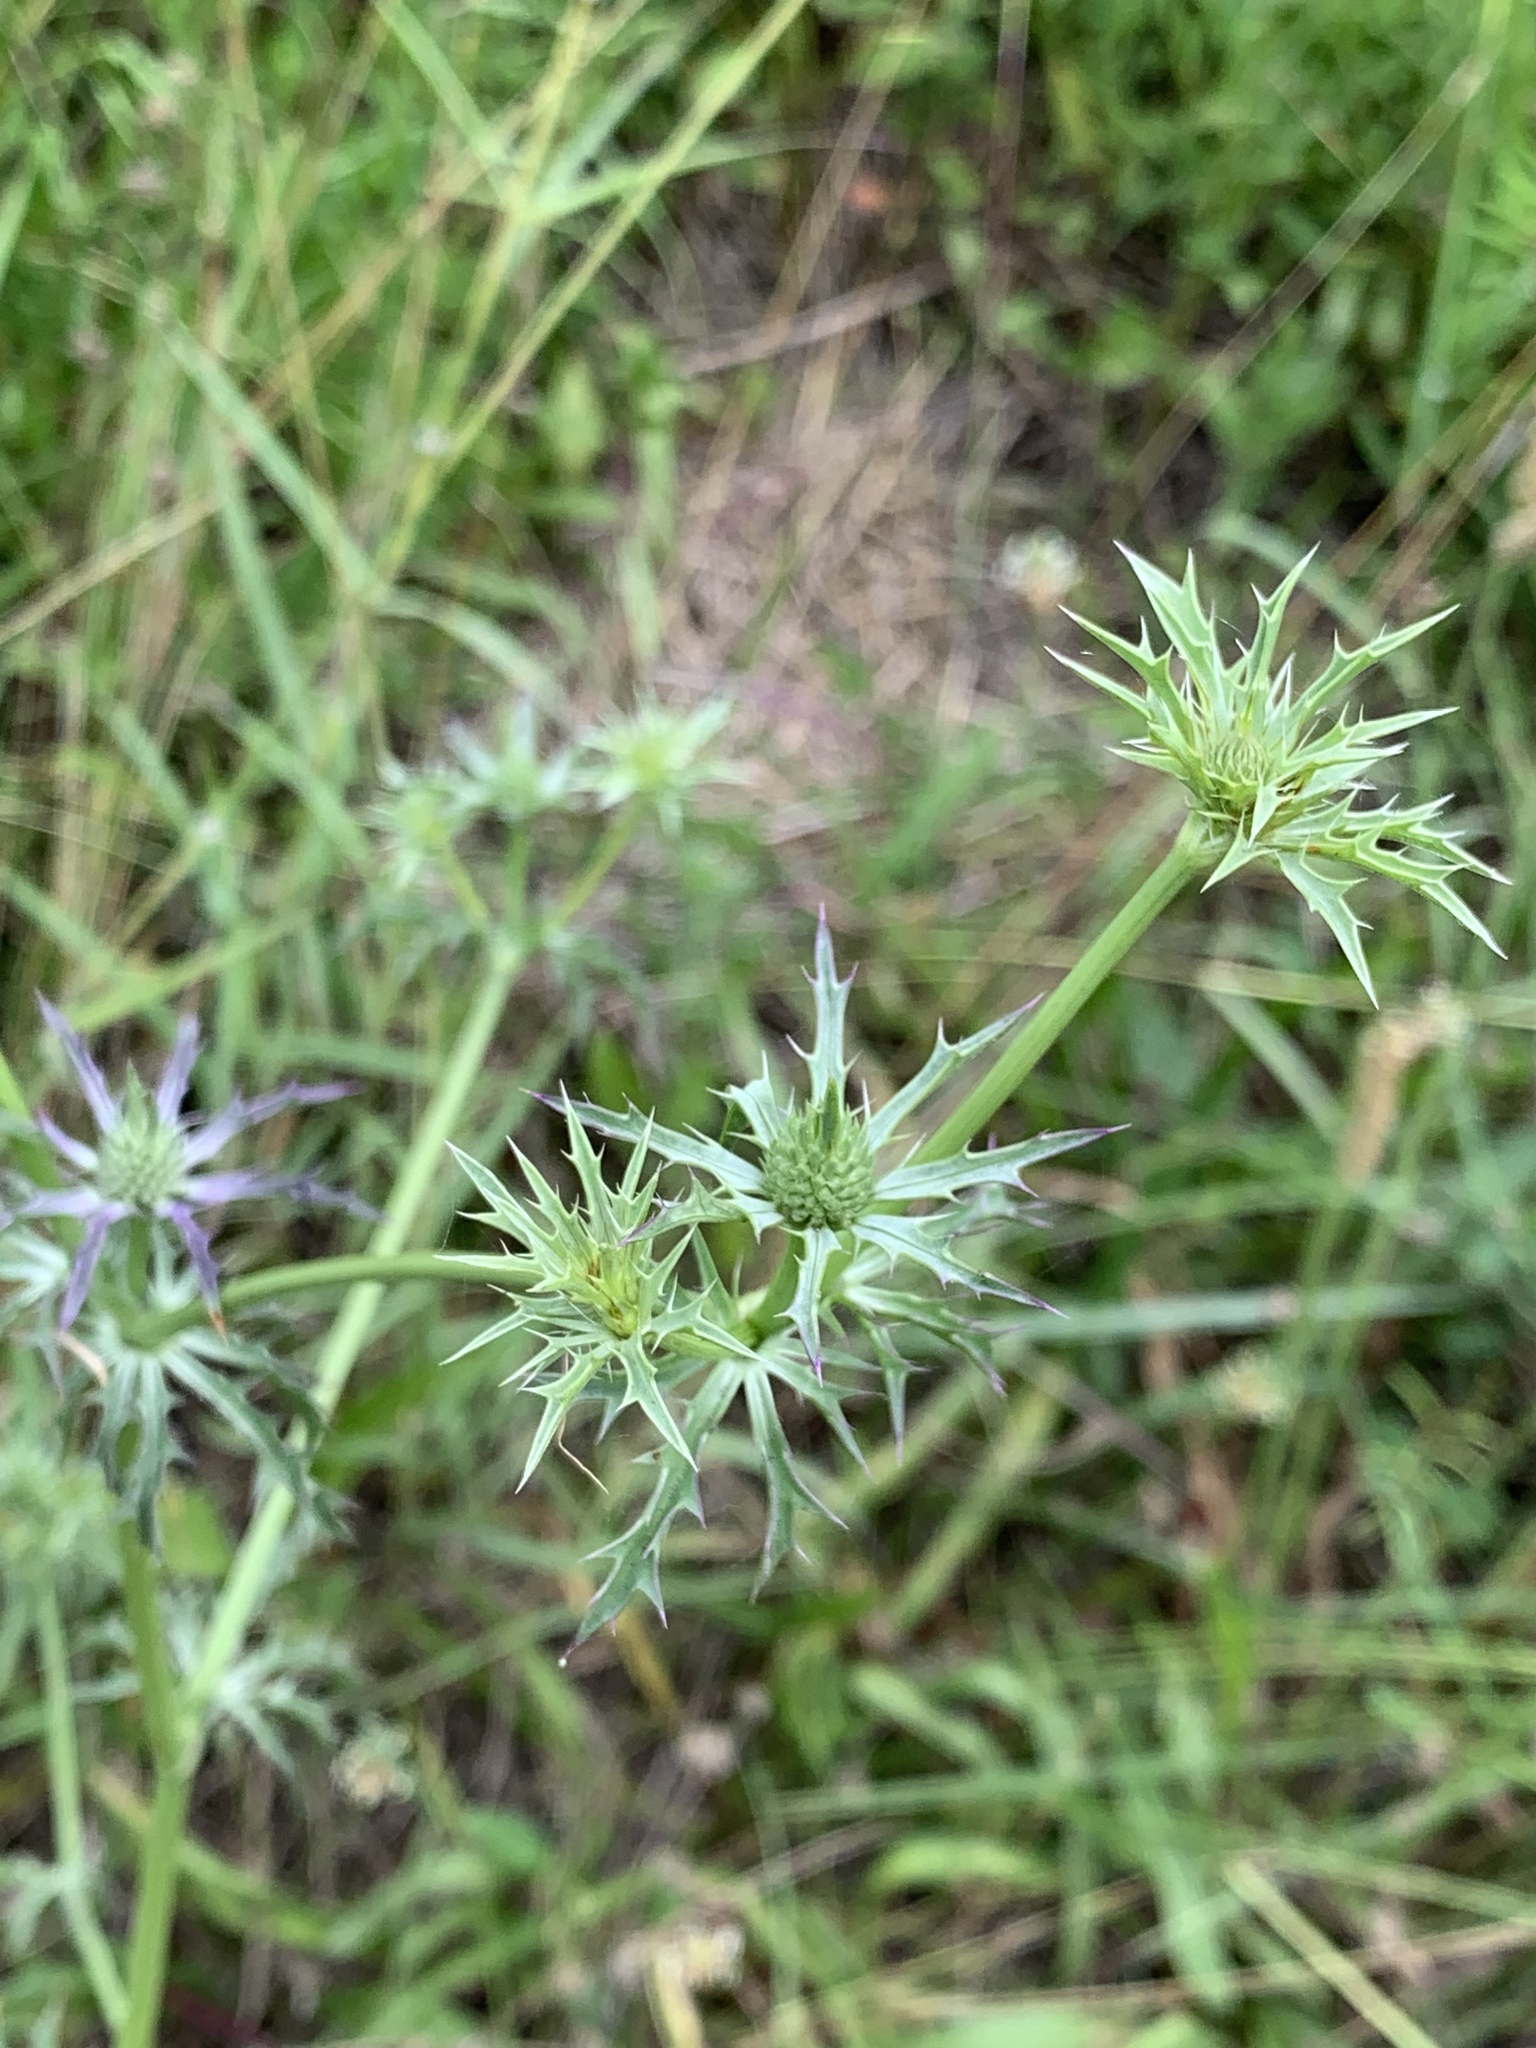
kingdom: Plantae
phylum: Tracheophyta
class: Magnoliopsida
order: Apiales
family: Apiaceae
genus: Eryngium
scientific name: Eryngium hookeri
